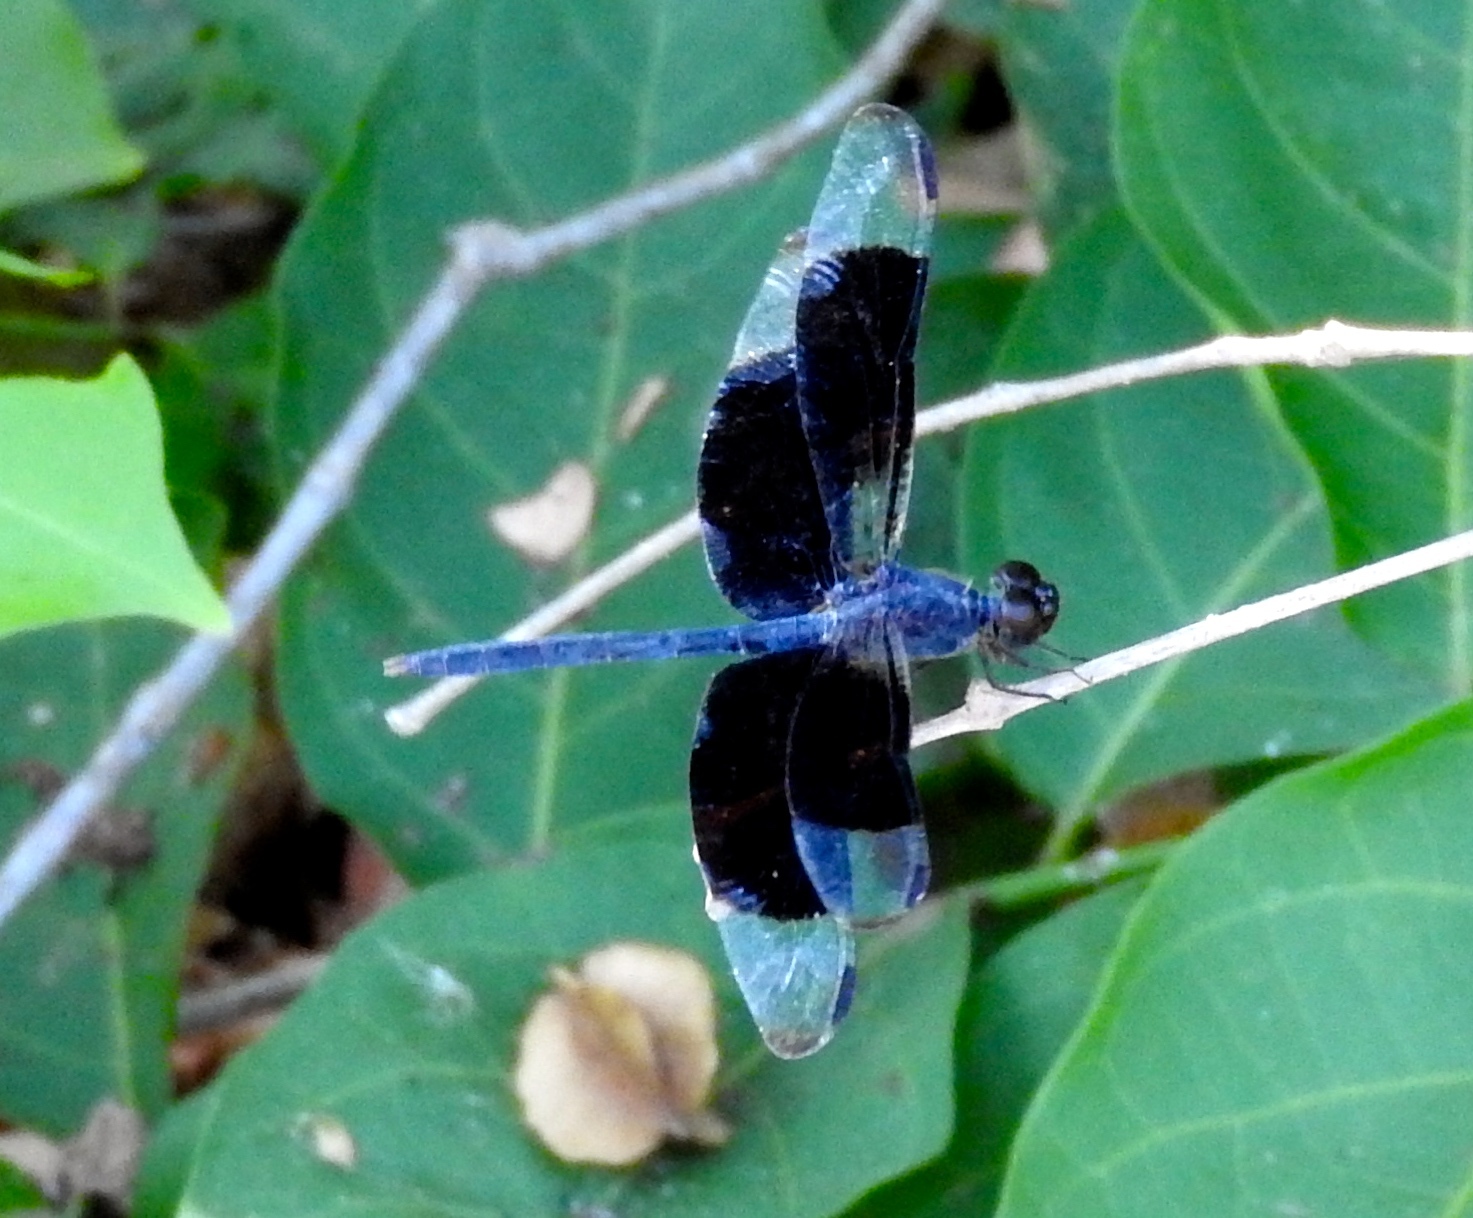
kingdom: Animalia
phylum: Arthropoda
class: Insecta
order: Odonata
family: Libellulidae
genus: Erythrodiplax
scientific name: Erythrodiplax funerea
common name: Black-winged dragonlet
